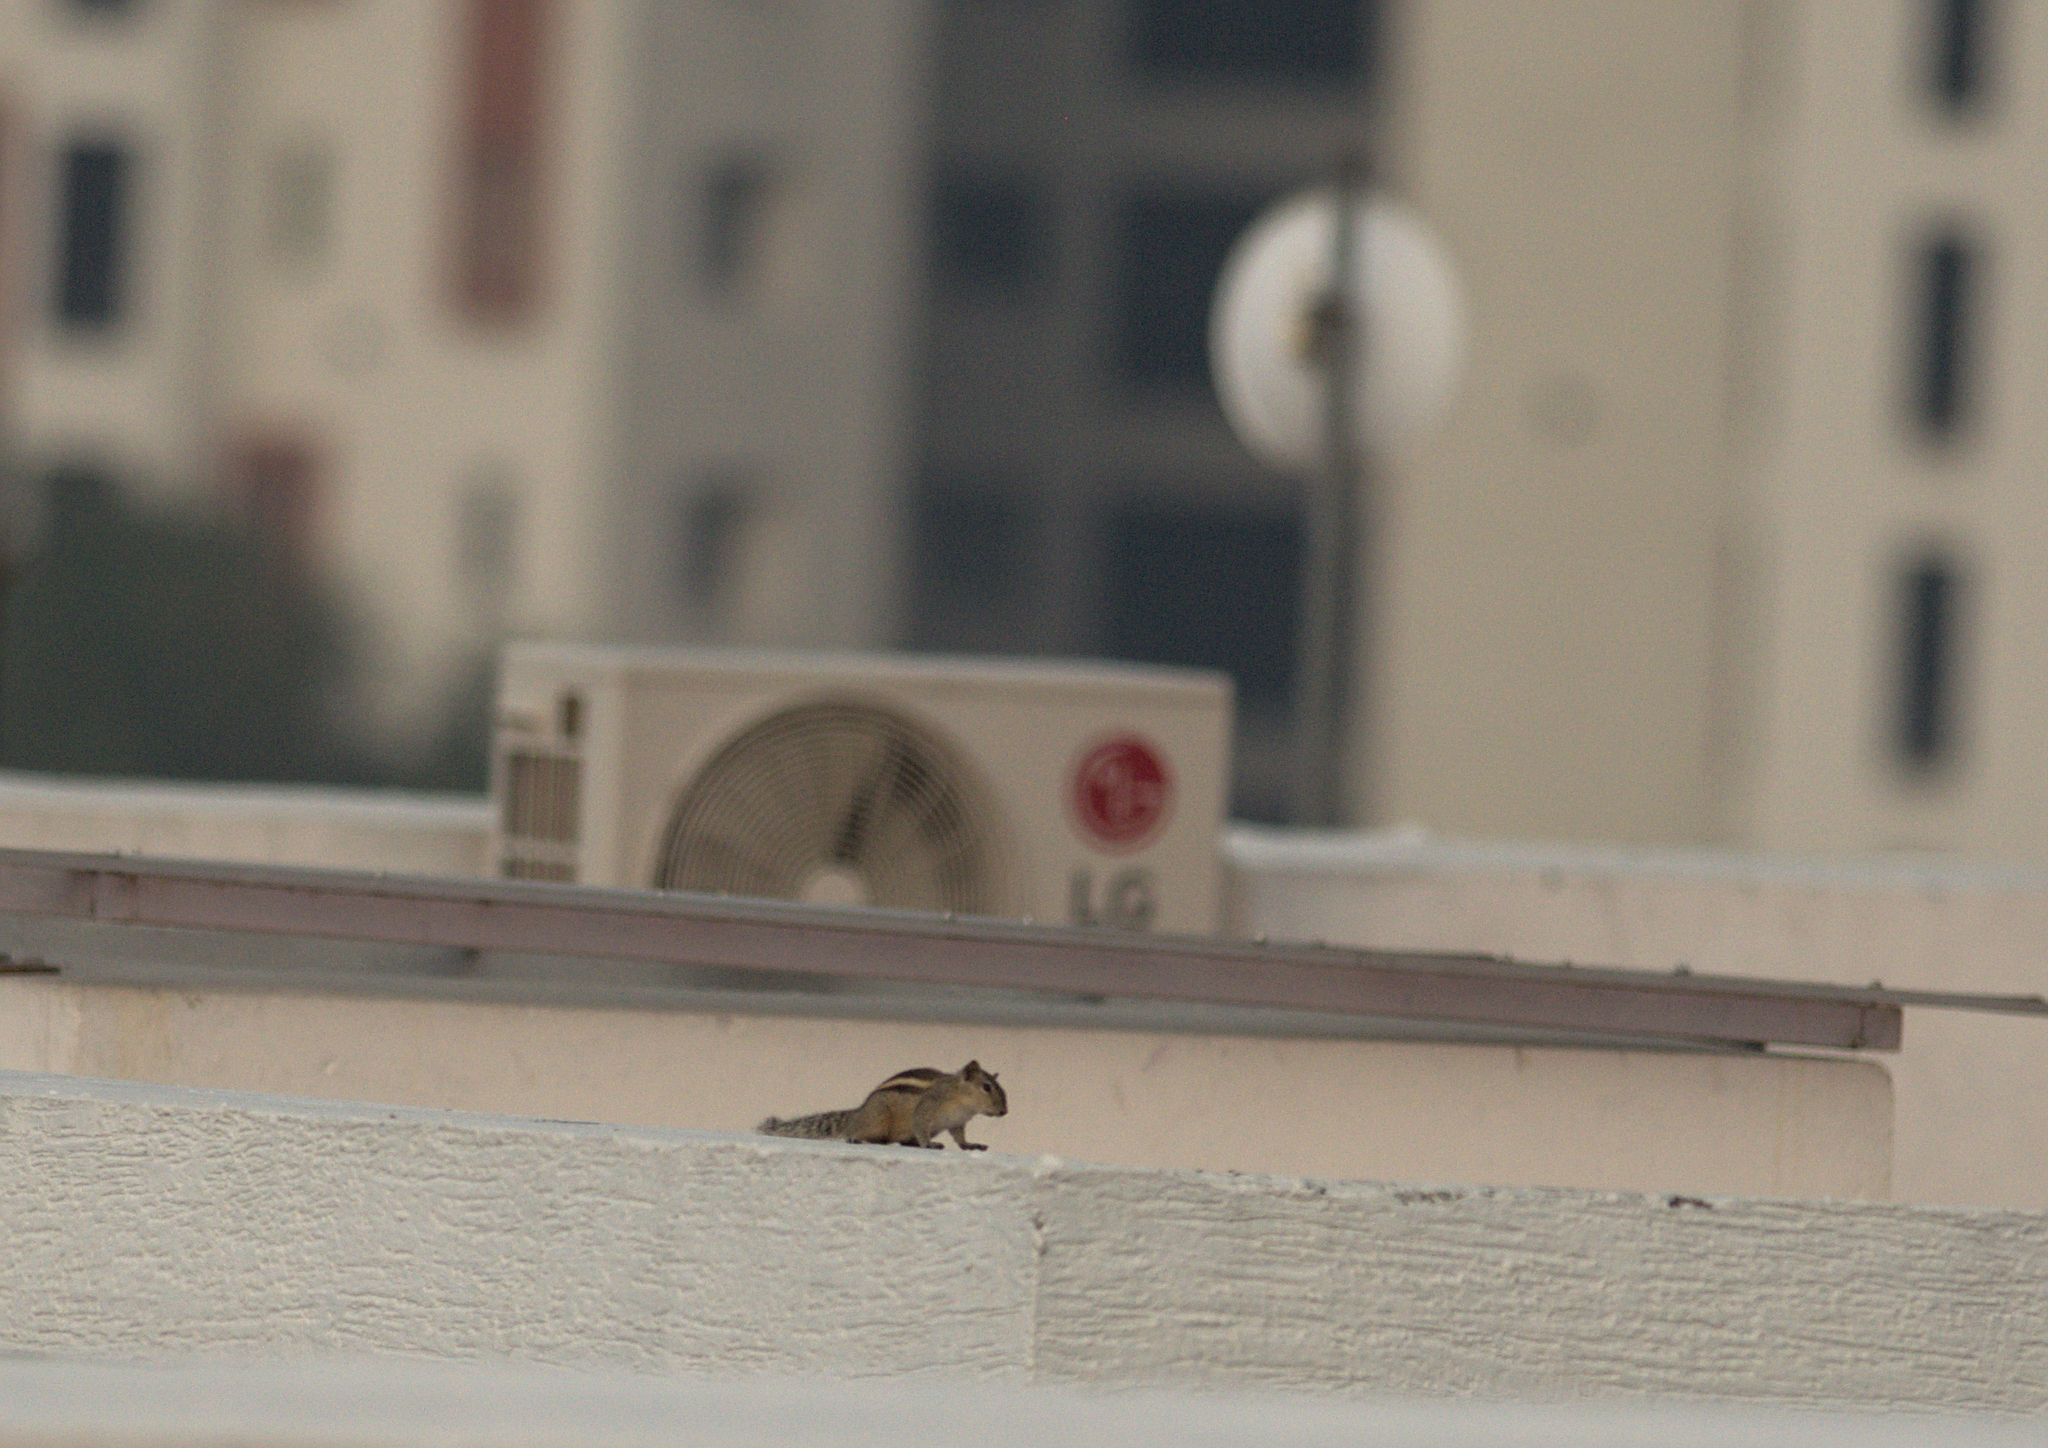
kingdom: Animalia
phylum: Chordata
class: Mammalia
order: Rodentia
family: Sciuridae
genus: Funambulus
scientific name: Funambulus palmarum
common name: Indian palm squirrel
